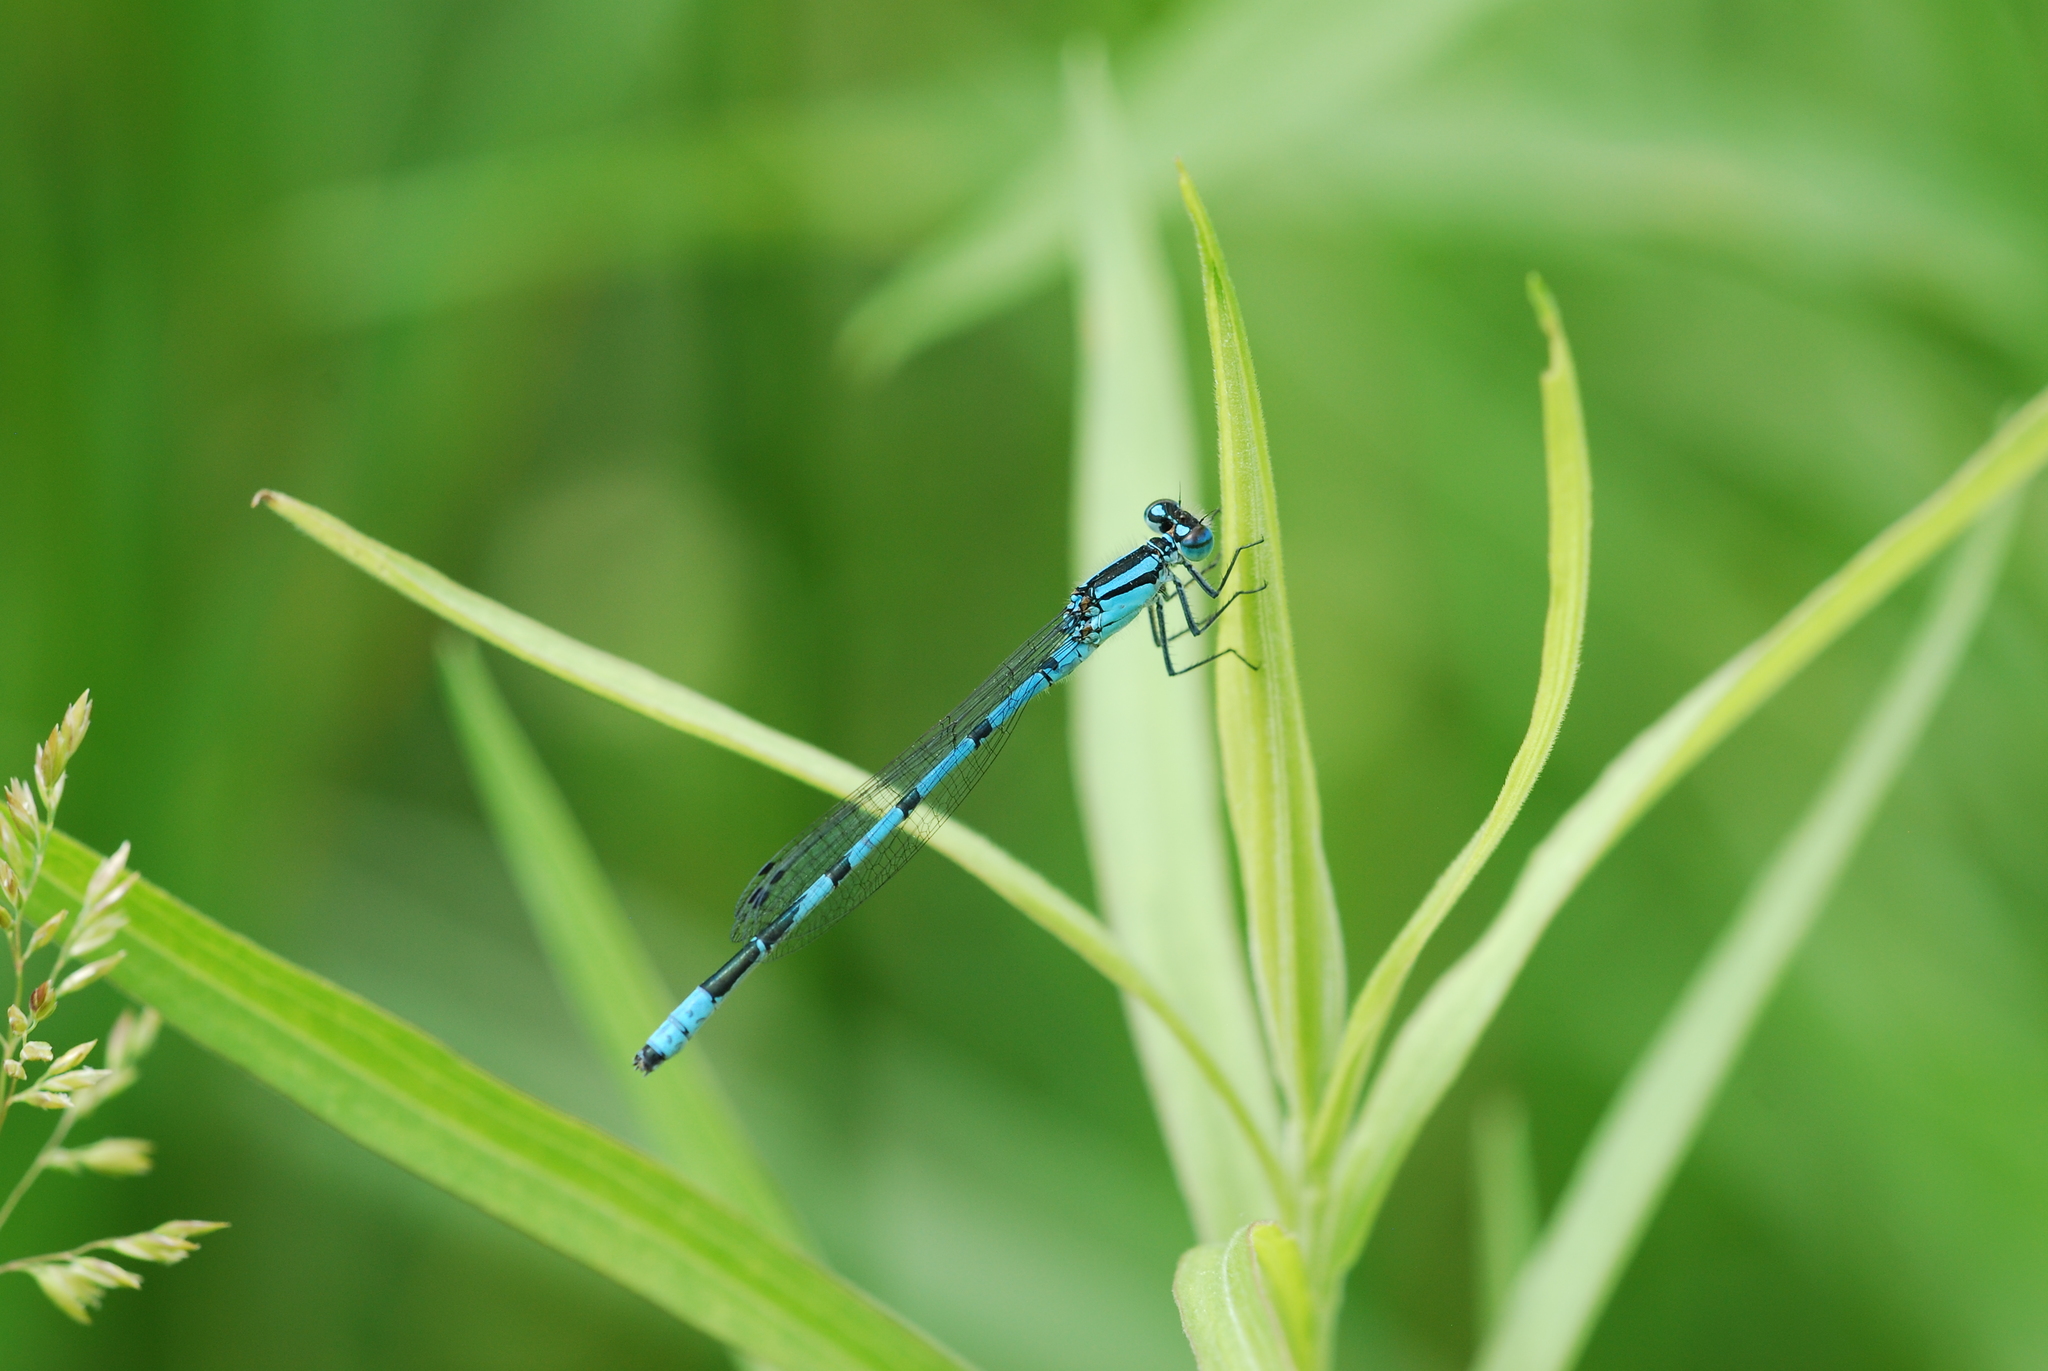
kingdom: Animalia
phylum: Arthropoda
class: Insecta
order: Odonata
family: Coenagrionidae
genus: Enallagma
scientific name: Enallagma hageni
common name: Hagen's bluet
